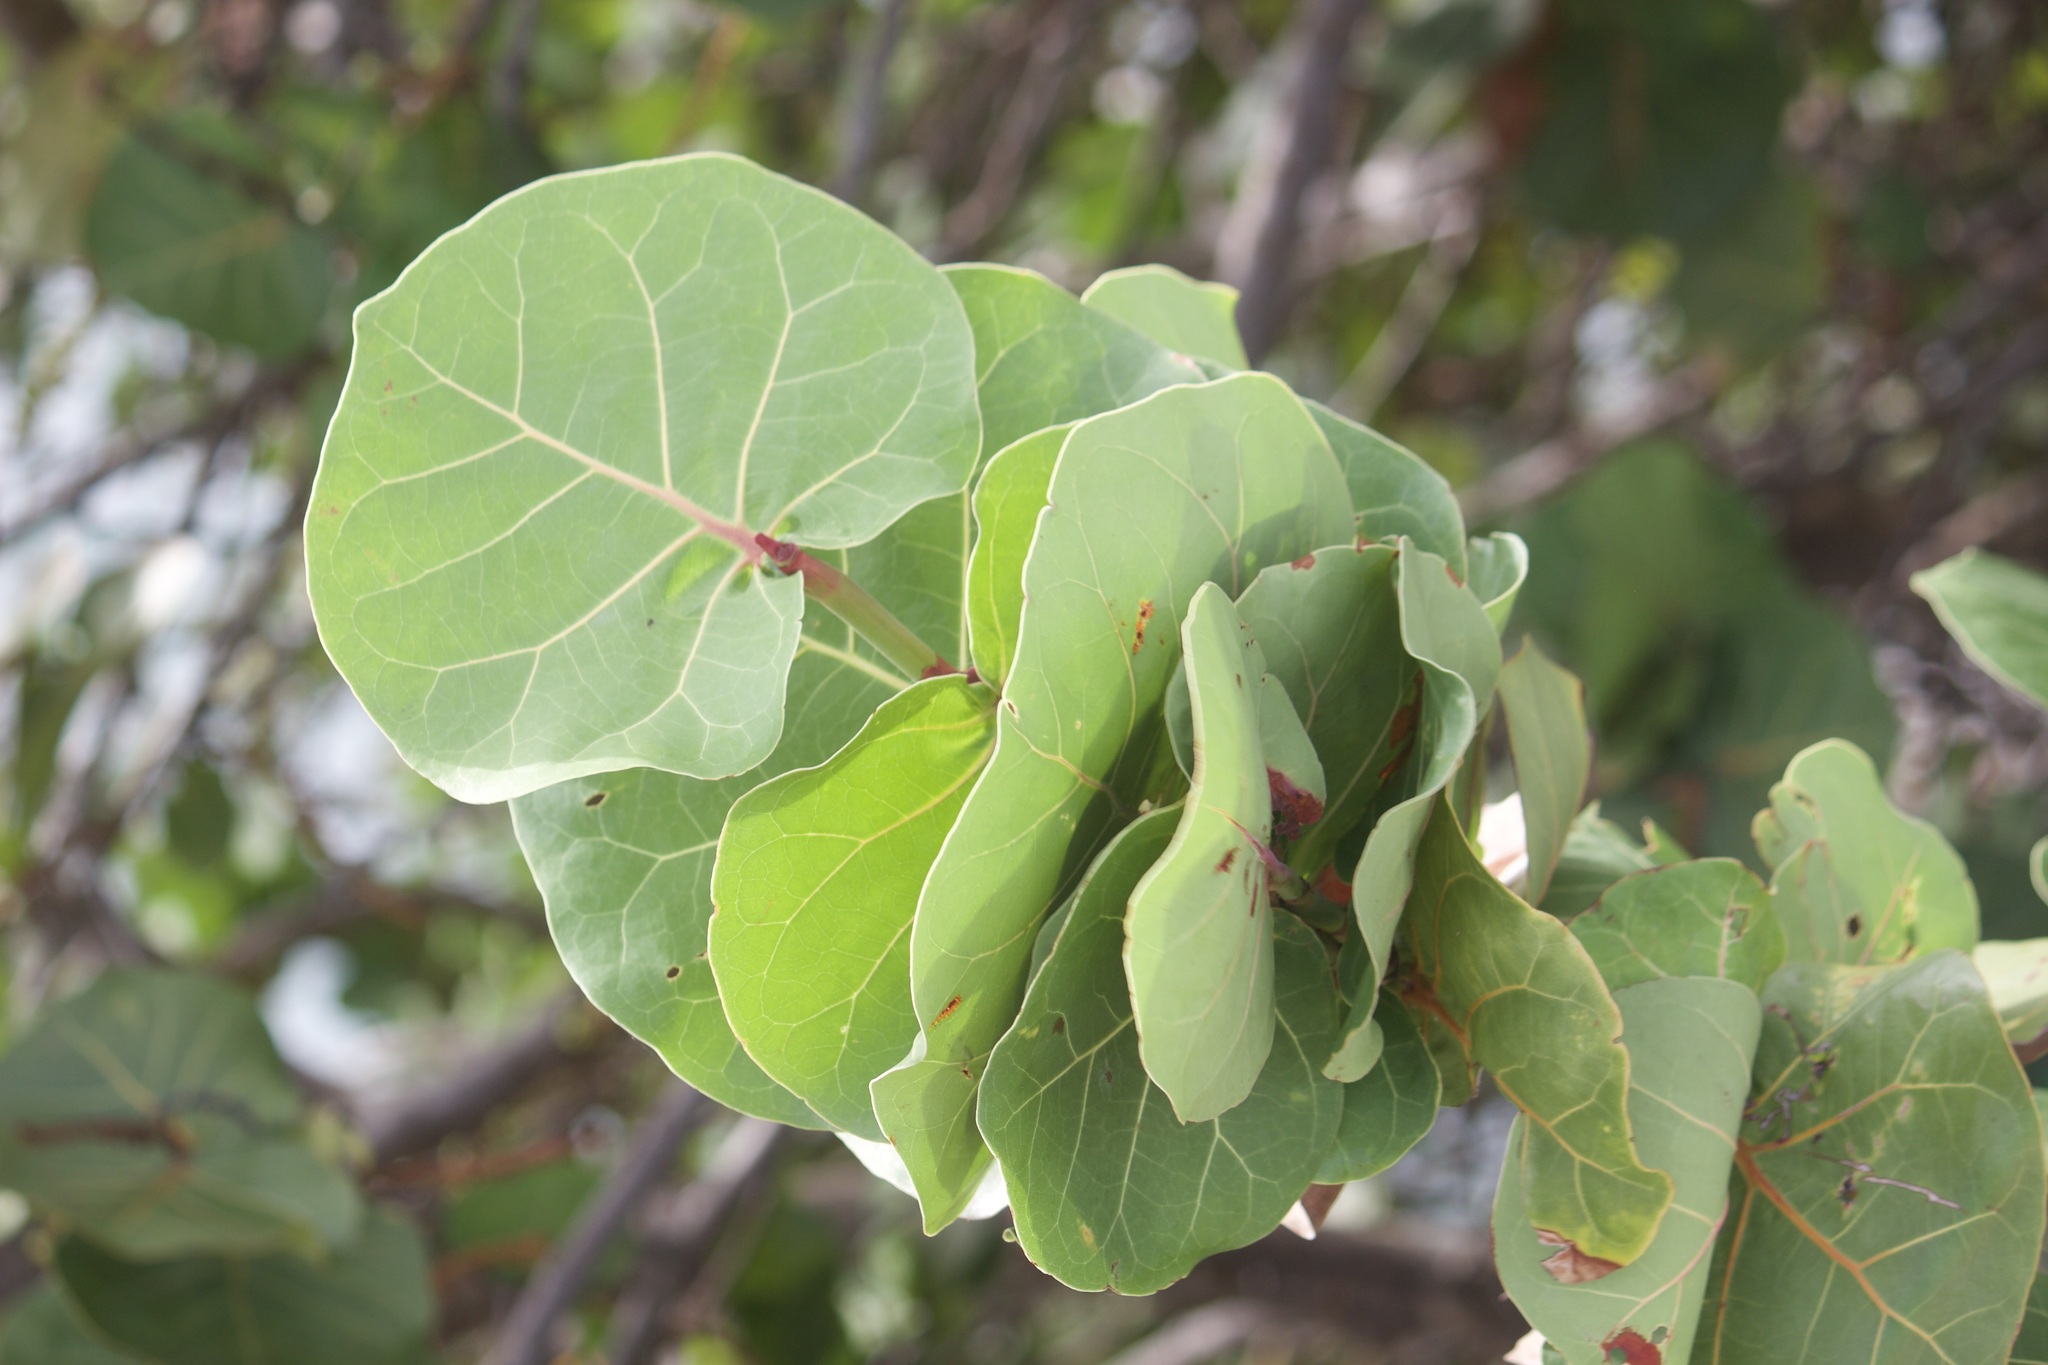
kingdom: Plantae
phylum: Tracheophyta
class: Magnoliopsida
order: Caryophyllales
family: Polygonaceae
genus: Coccoloba
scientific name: Coccoloba uvifera
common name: Seagrape
